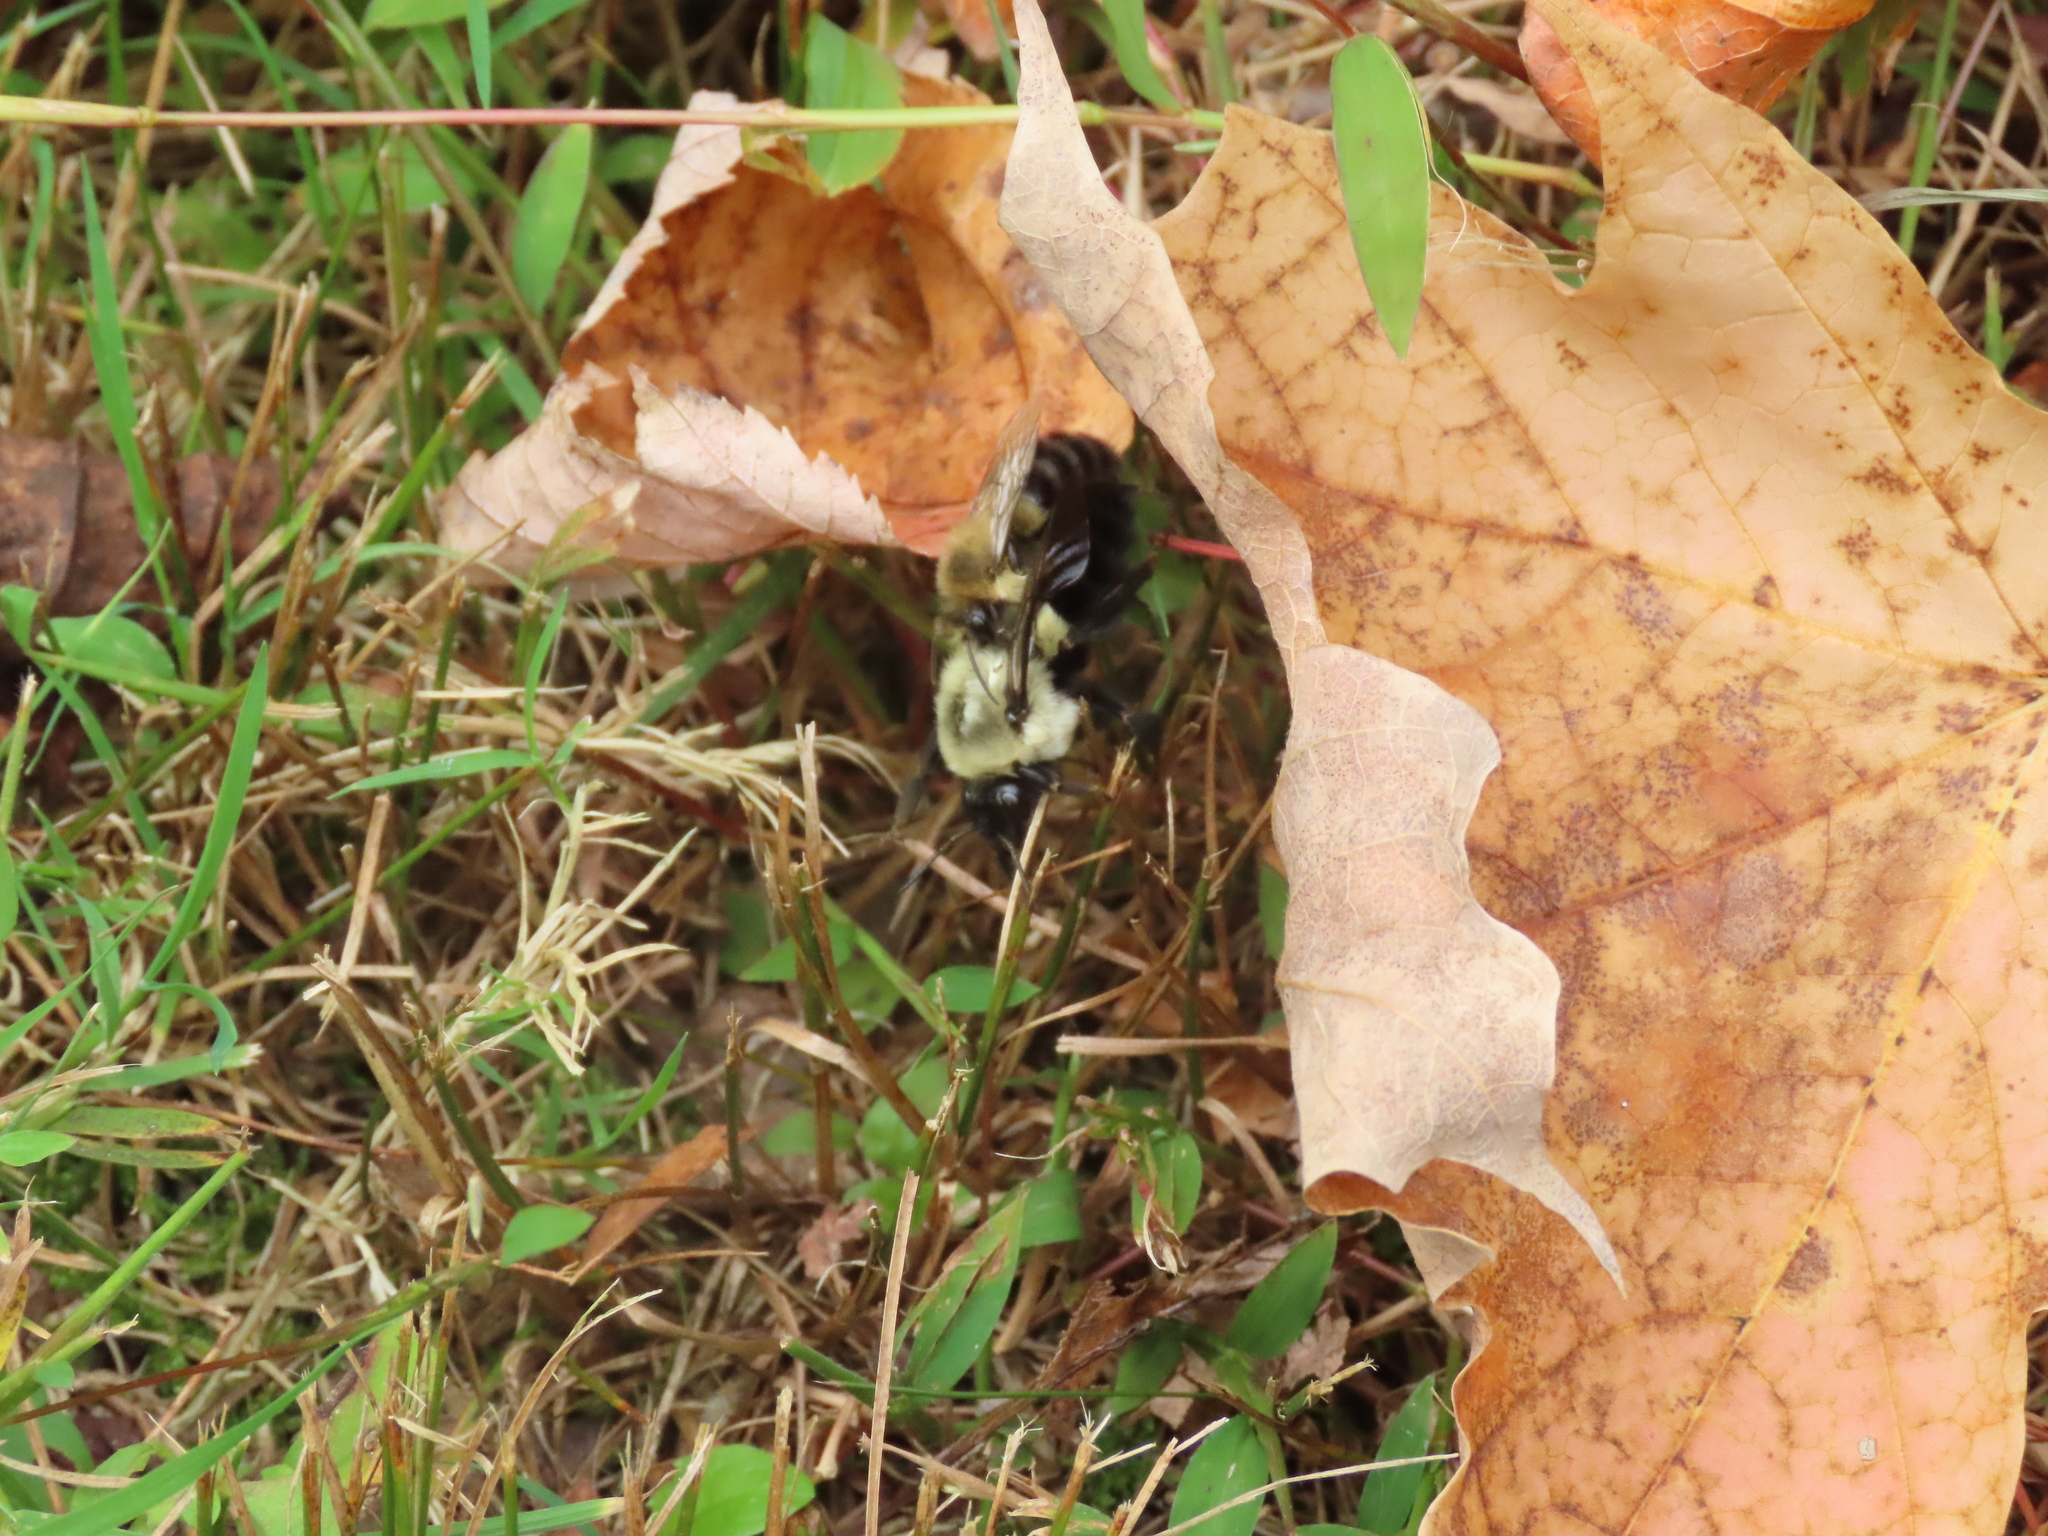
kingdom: Animalia
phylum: Arthropoda
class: Insecta
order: Hymenoptera
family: Apidae
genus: Bombus
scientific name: Bombus impatiens
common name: Common eastern bumble bee
